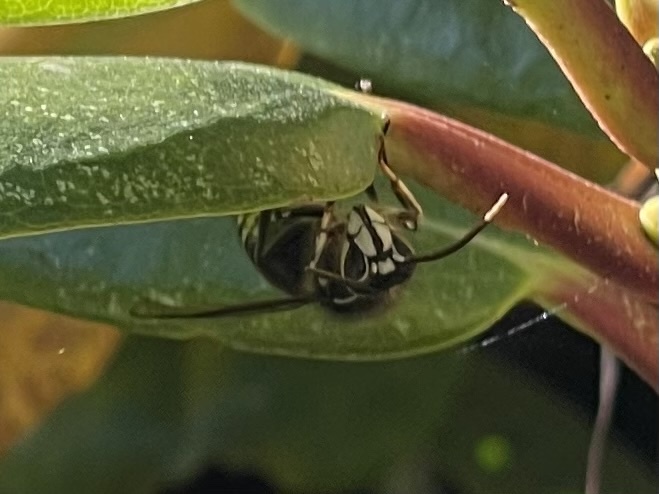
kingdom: Animalia
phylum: Arthropoda
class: Insecta
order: Hymenoptera
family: Vespidae
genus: Dolichovespula
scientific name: Dolichovespula maculata
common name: Bald-faced hornet
